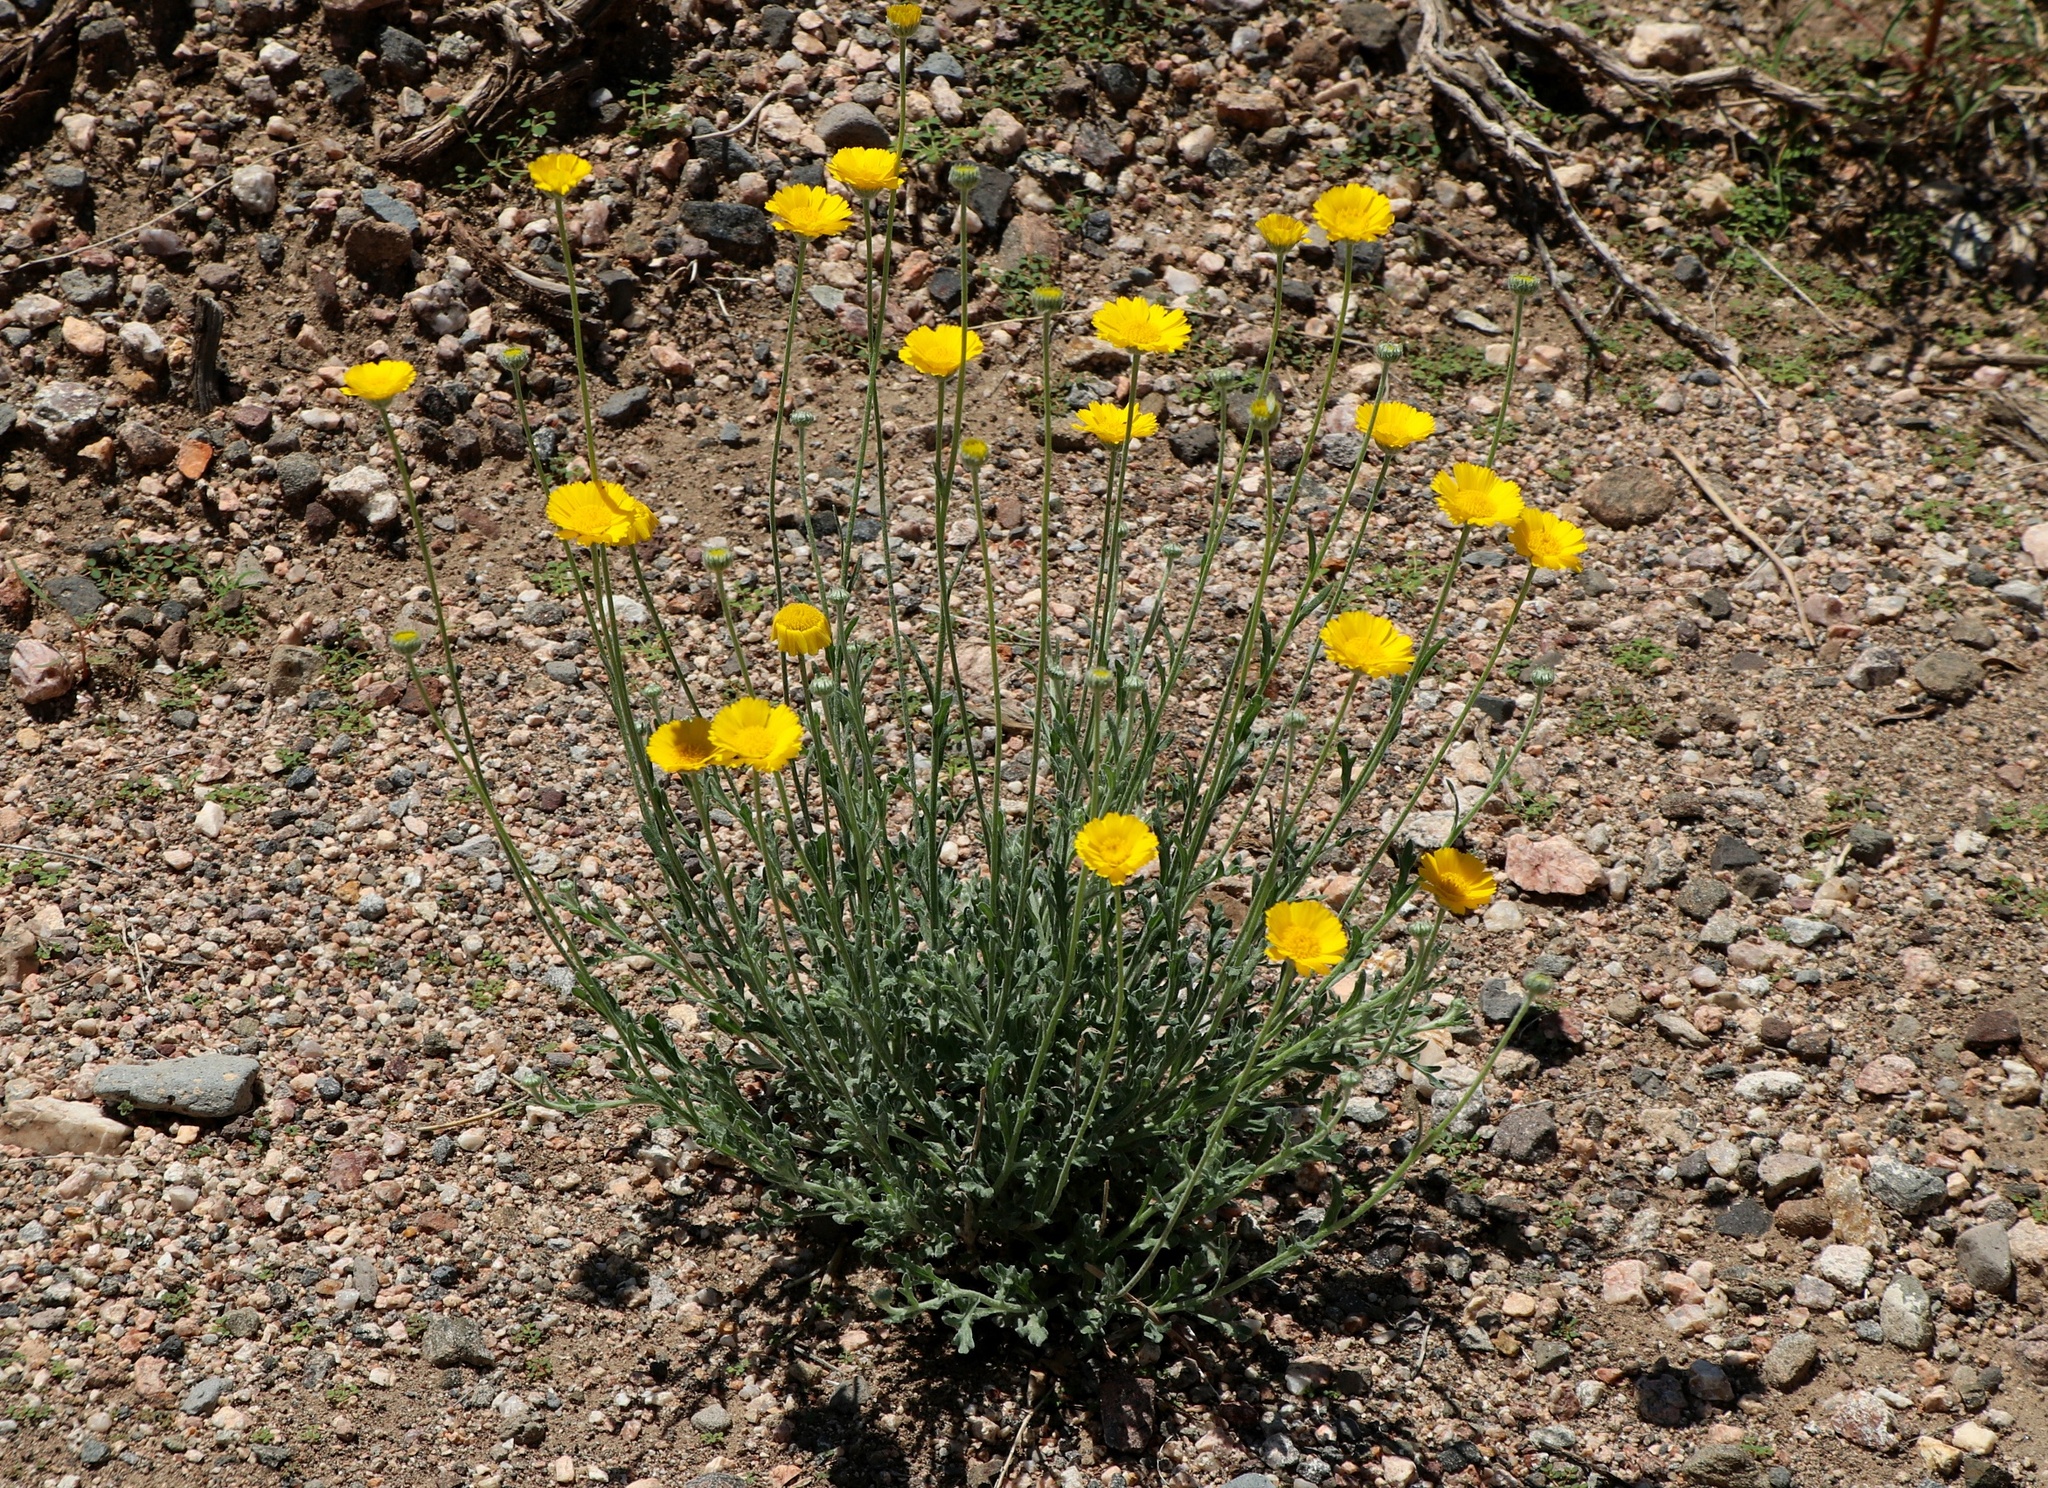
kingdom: Plantae
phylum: Tracheophyta
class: Magnoliopsida
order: Asterales
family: Asteraceae
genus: Baileya
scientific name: Baileya multiradiata
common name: Desert-marigold
